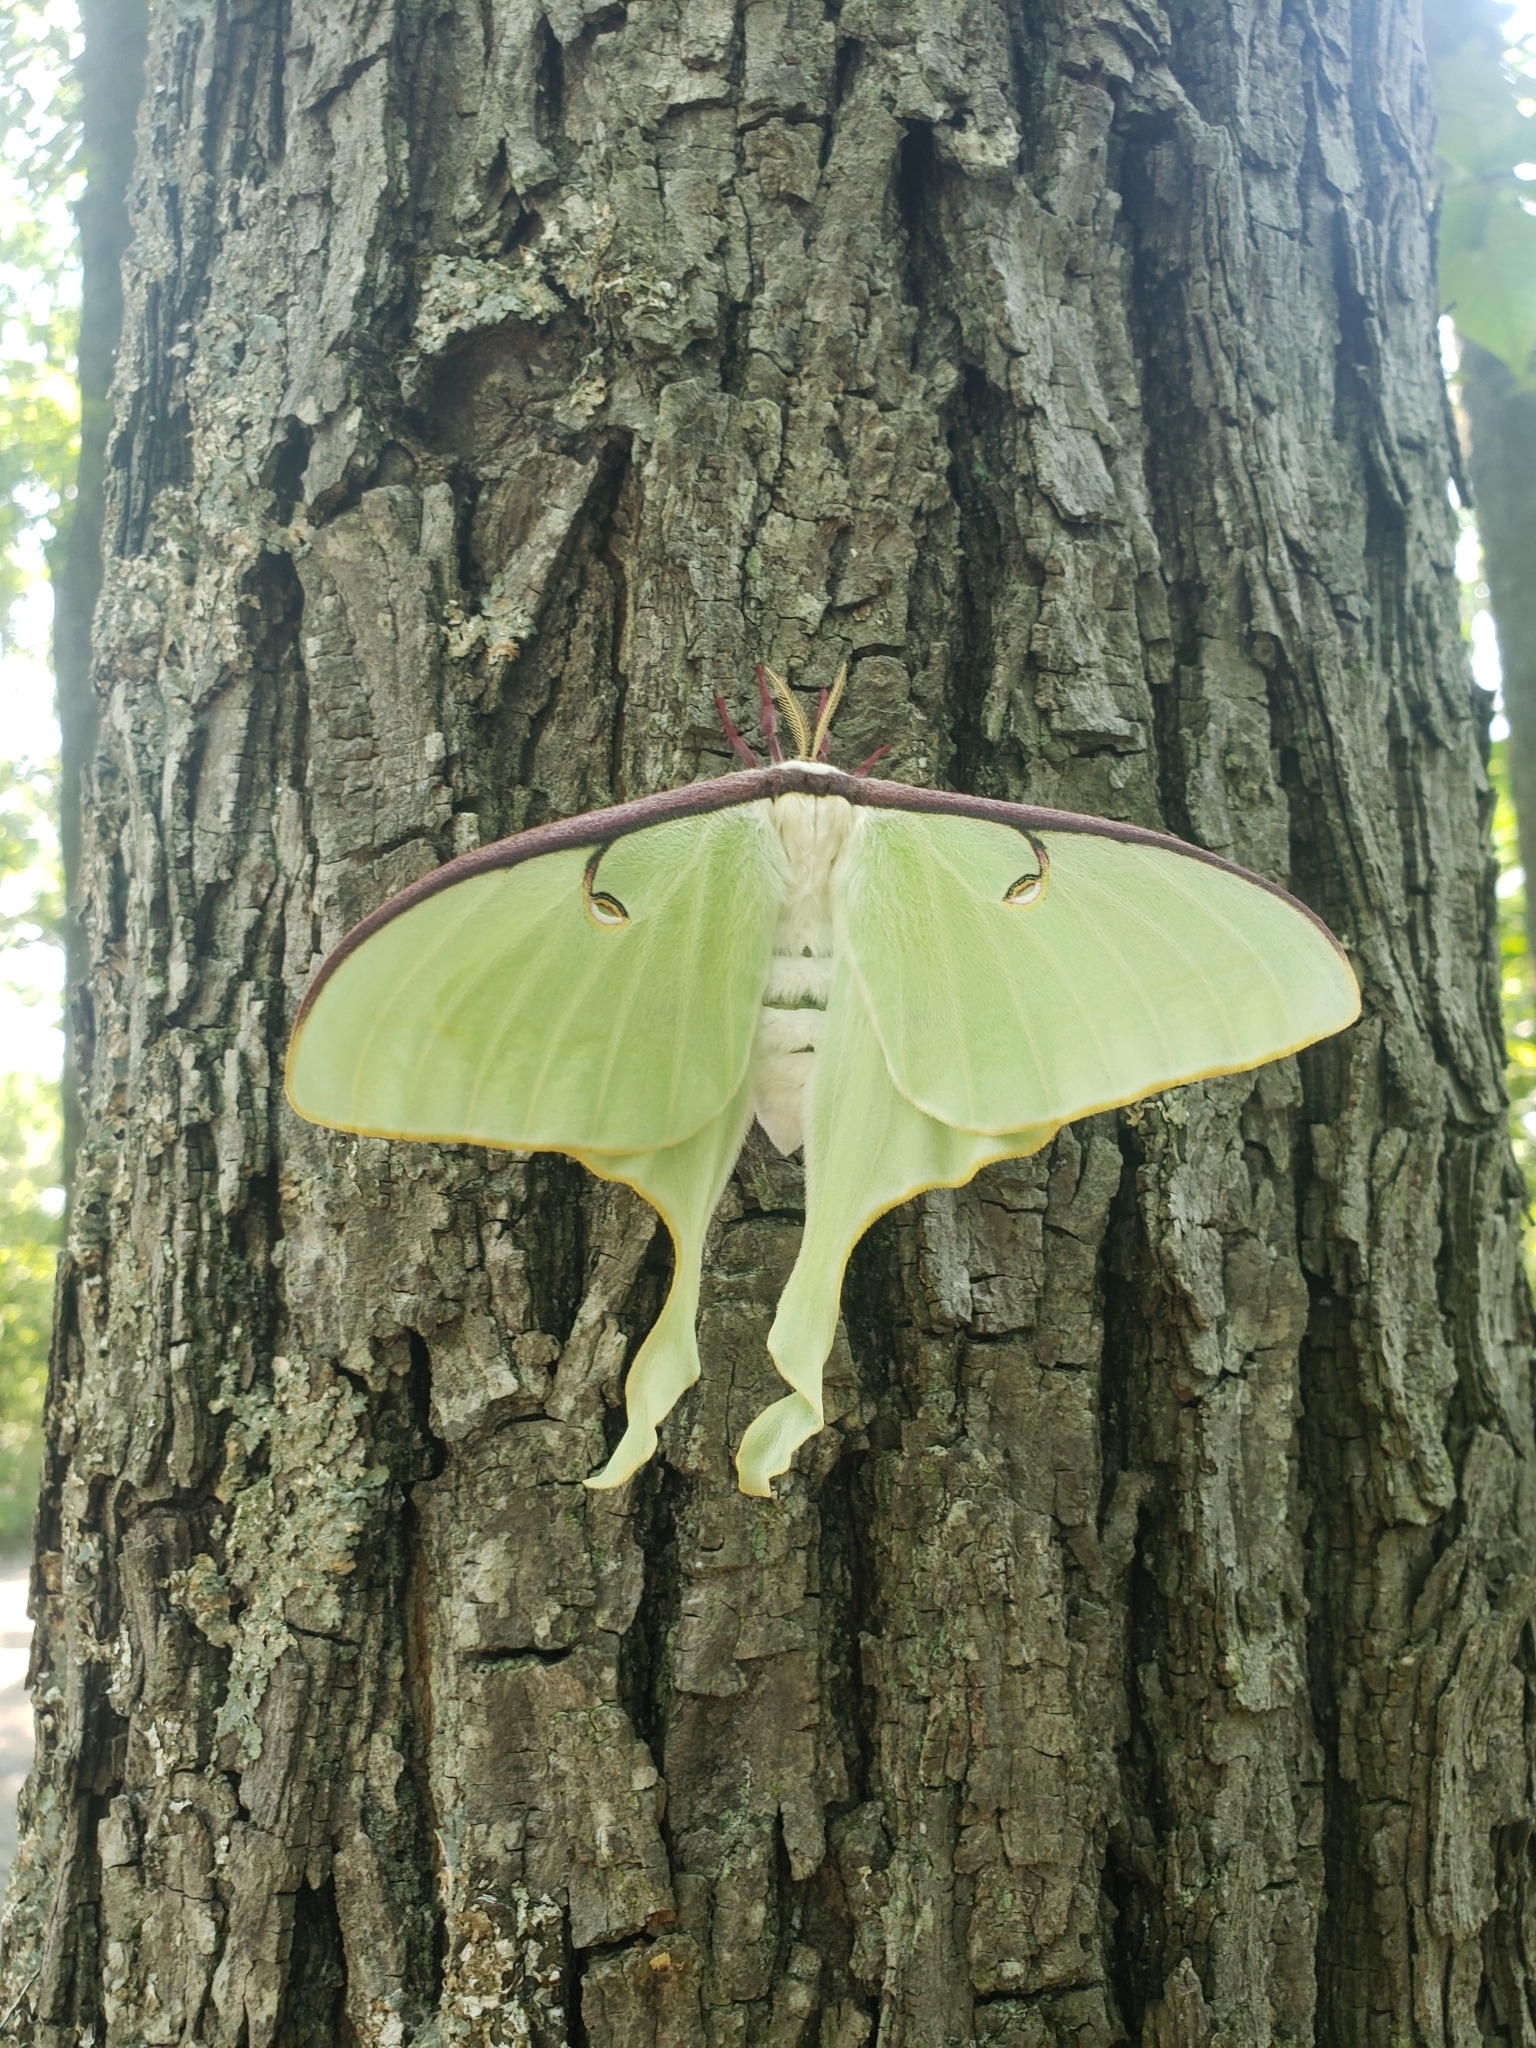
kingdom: Animalia
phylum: Arthropoda
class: Insecta
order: Lepidoptera
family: Saturniidae
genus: Actias
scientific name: Actias luna
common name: Luna moth
